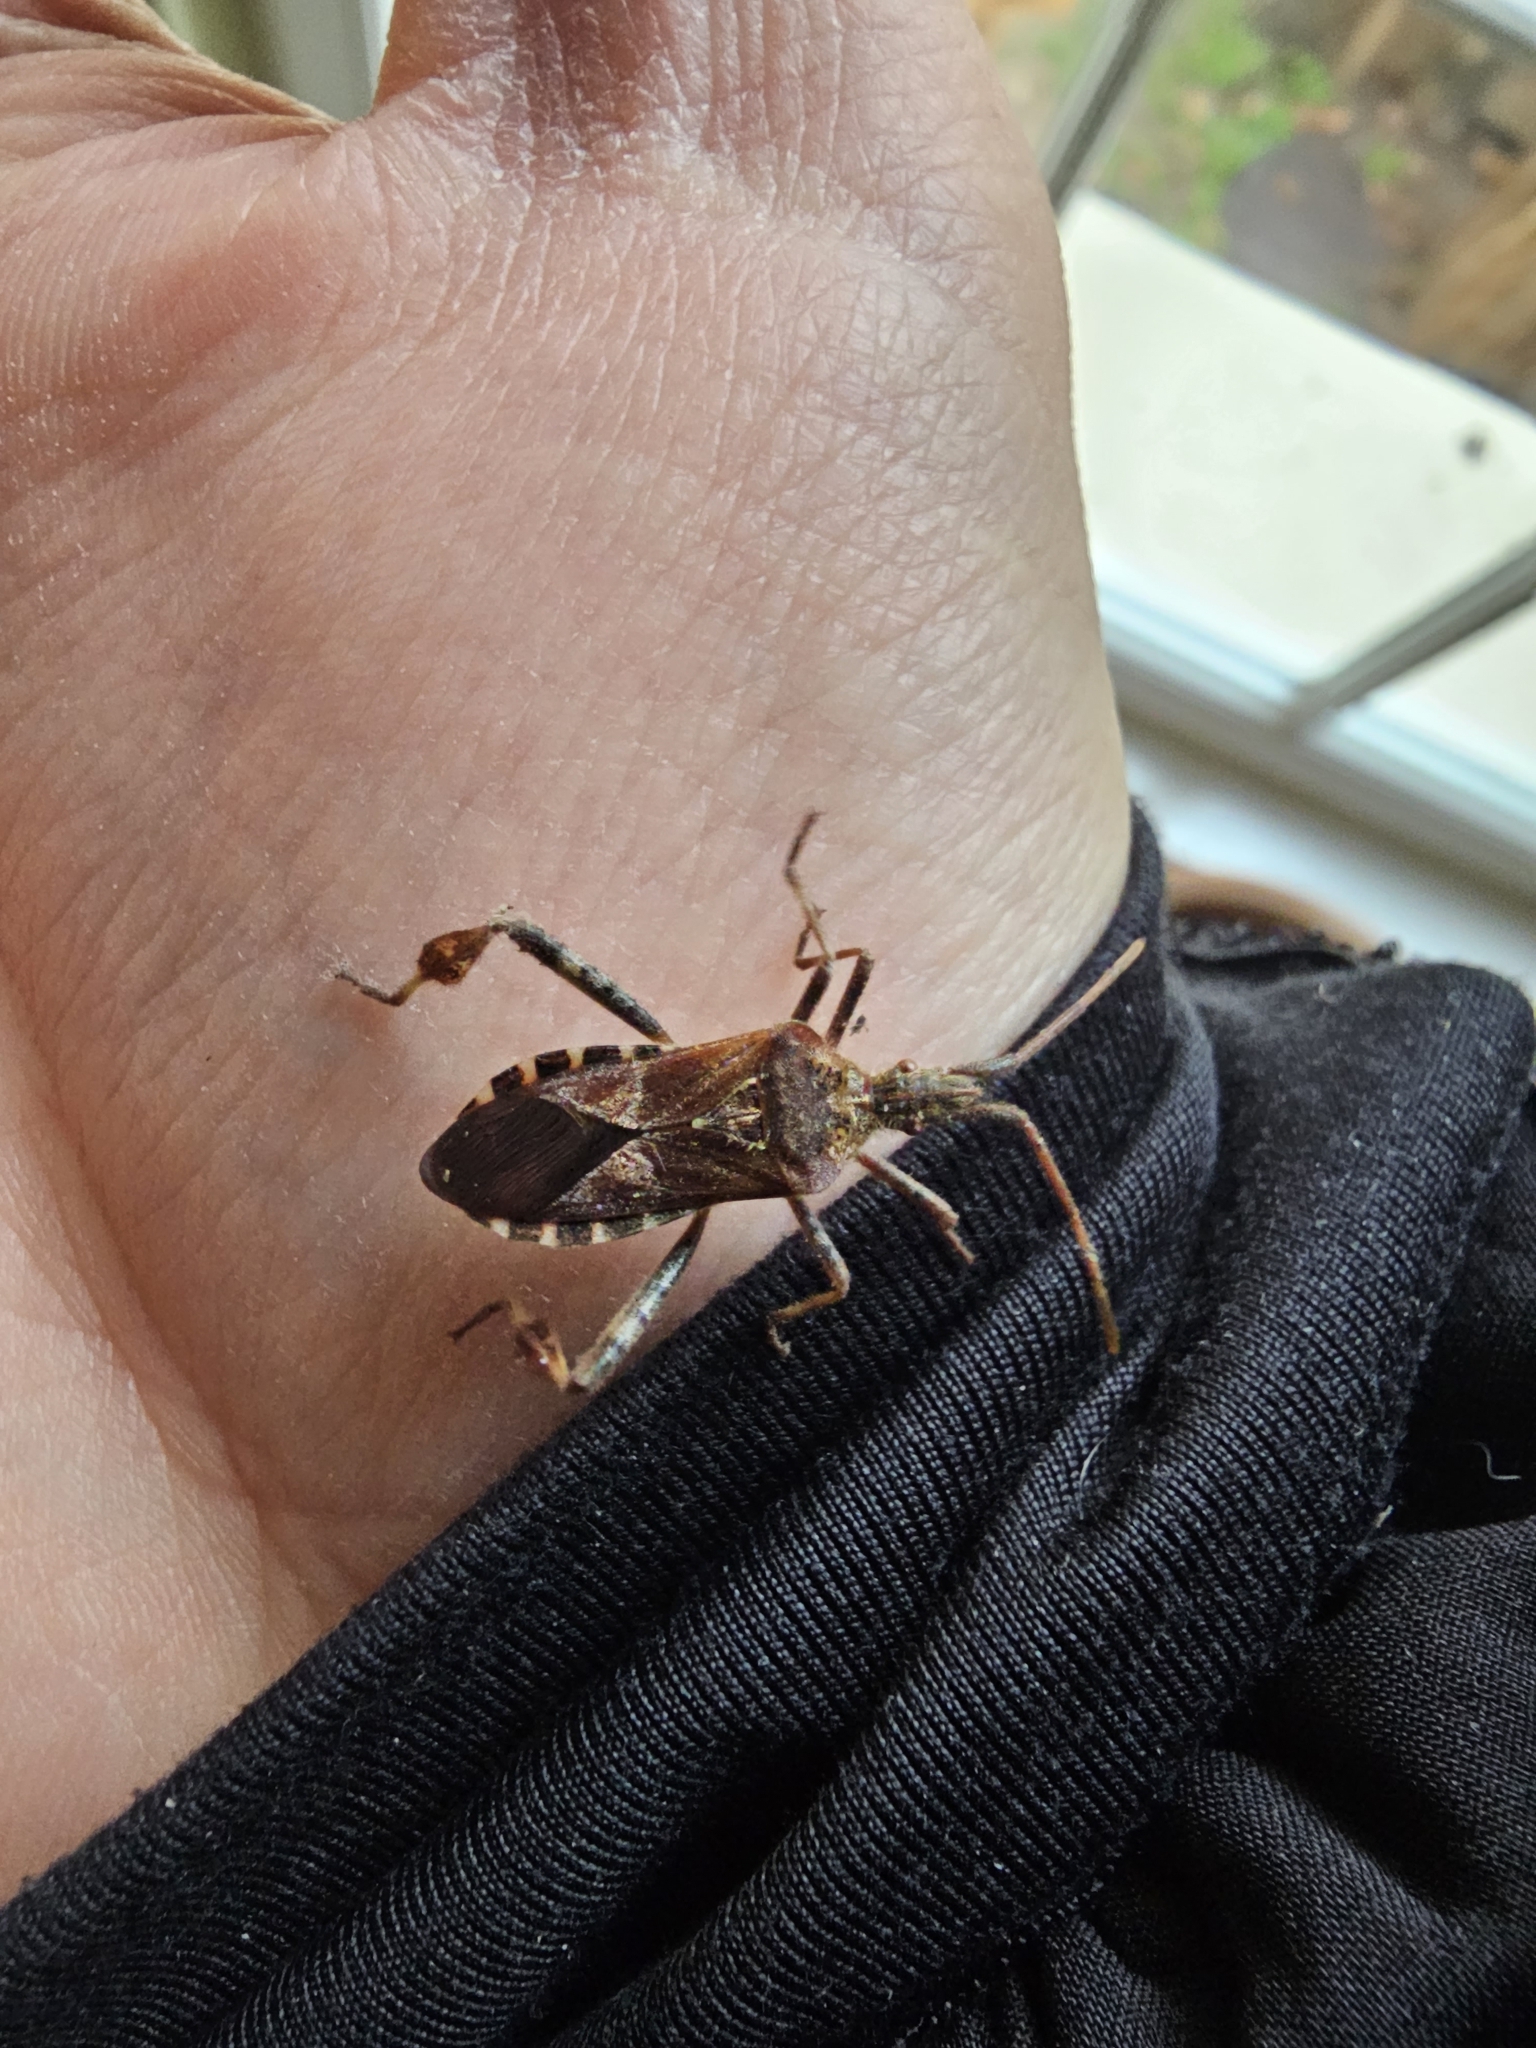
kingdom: Animalia
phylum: Arthropoda
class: Insecta
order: Hemiptera
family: Coreidae
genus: Leptoglossus
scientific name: Leptoglossus occidentalis
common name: Western conifer-seed bug
